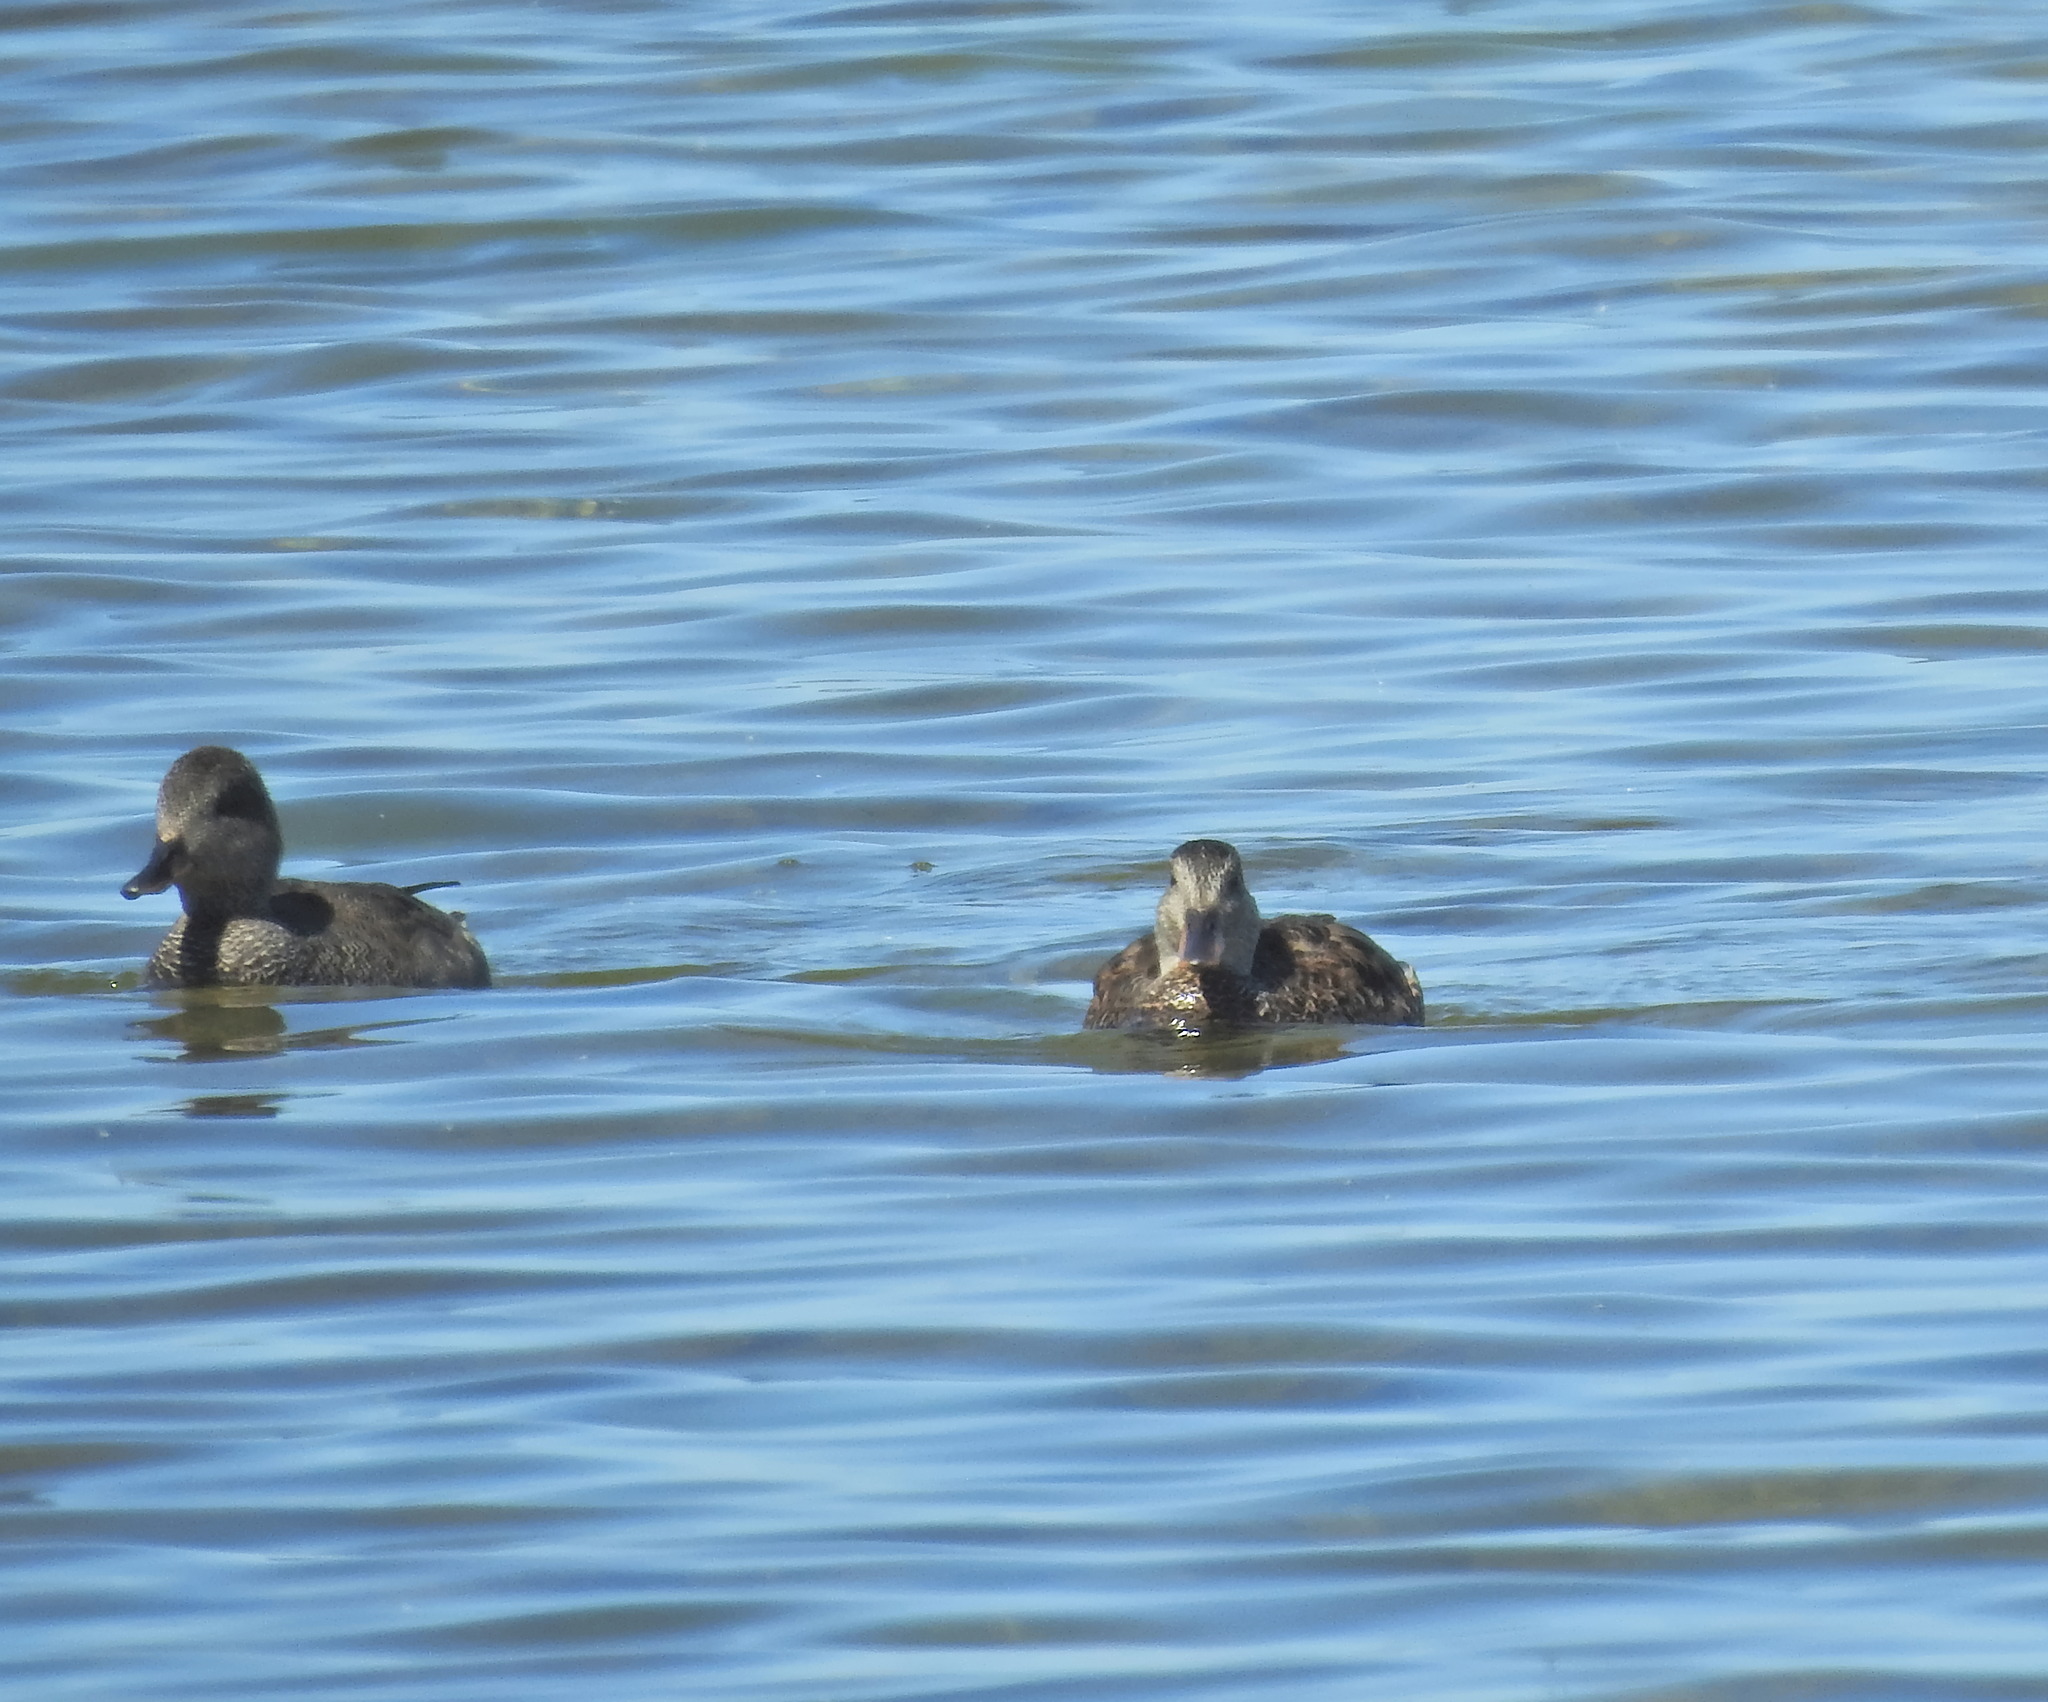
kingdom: Animalia
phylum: Chordata
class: Aves
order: Anseriformes
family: Anatidae
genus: Mareca
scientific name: Mareca strepera
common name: Gadwall
